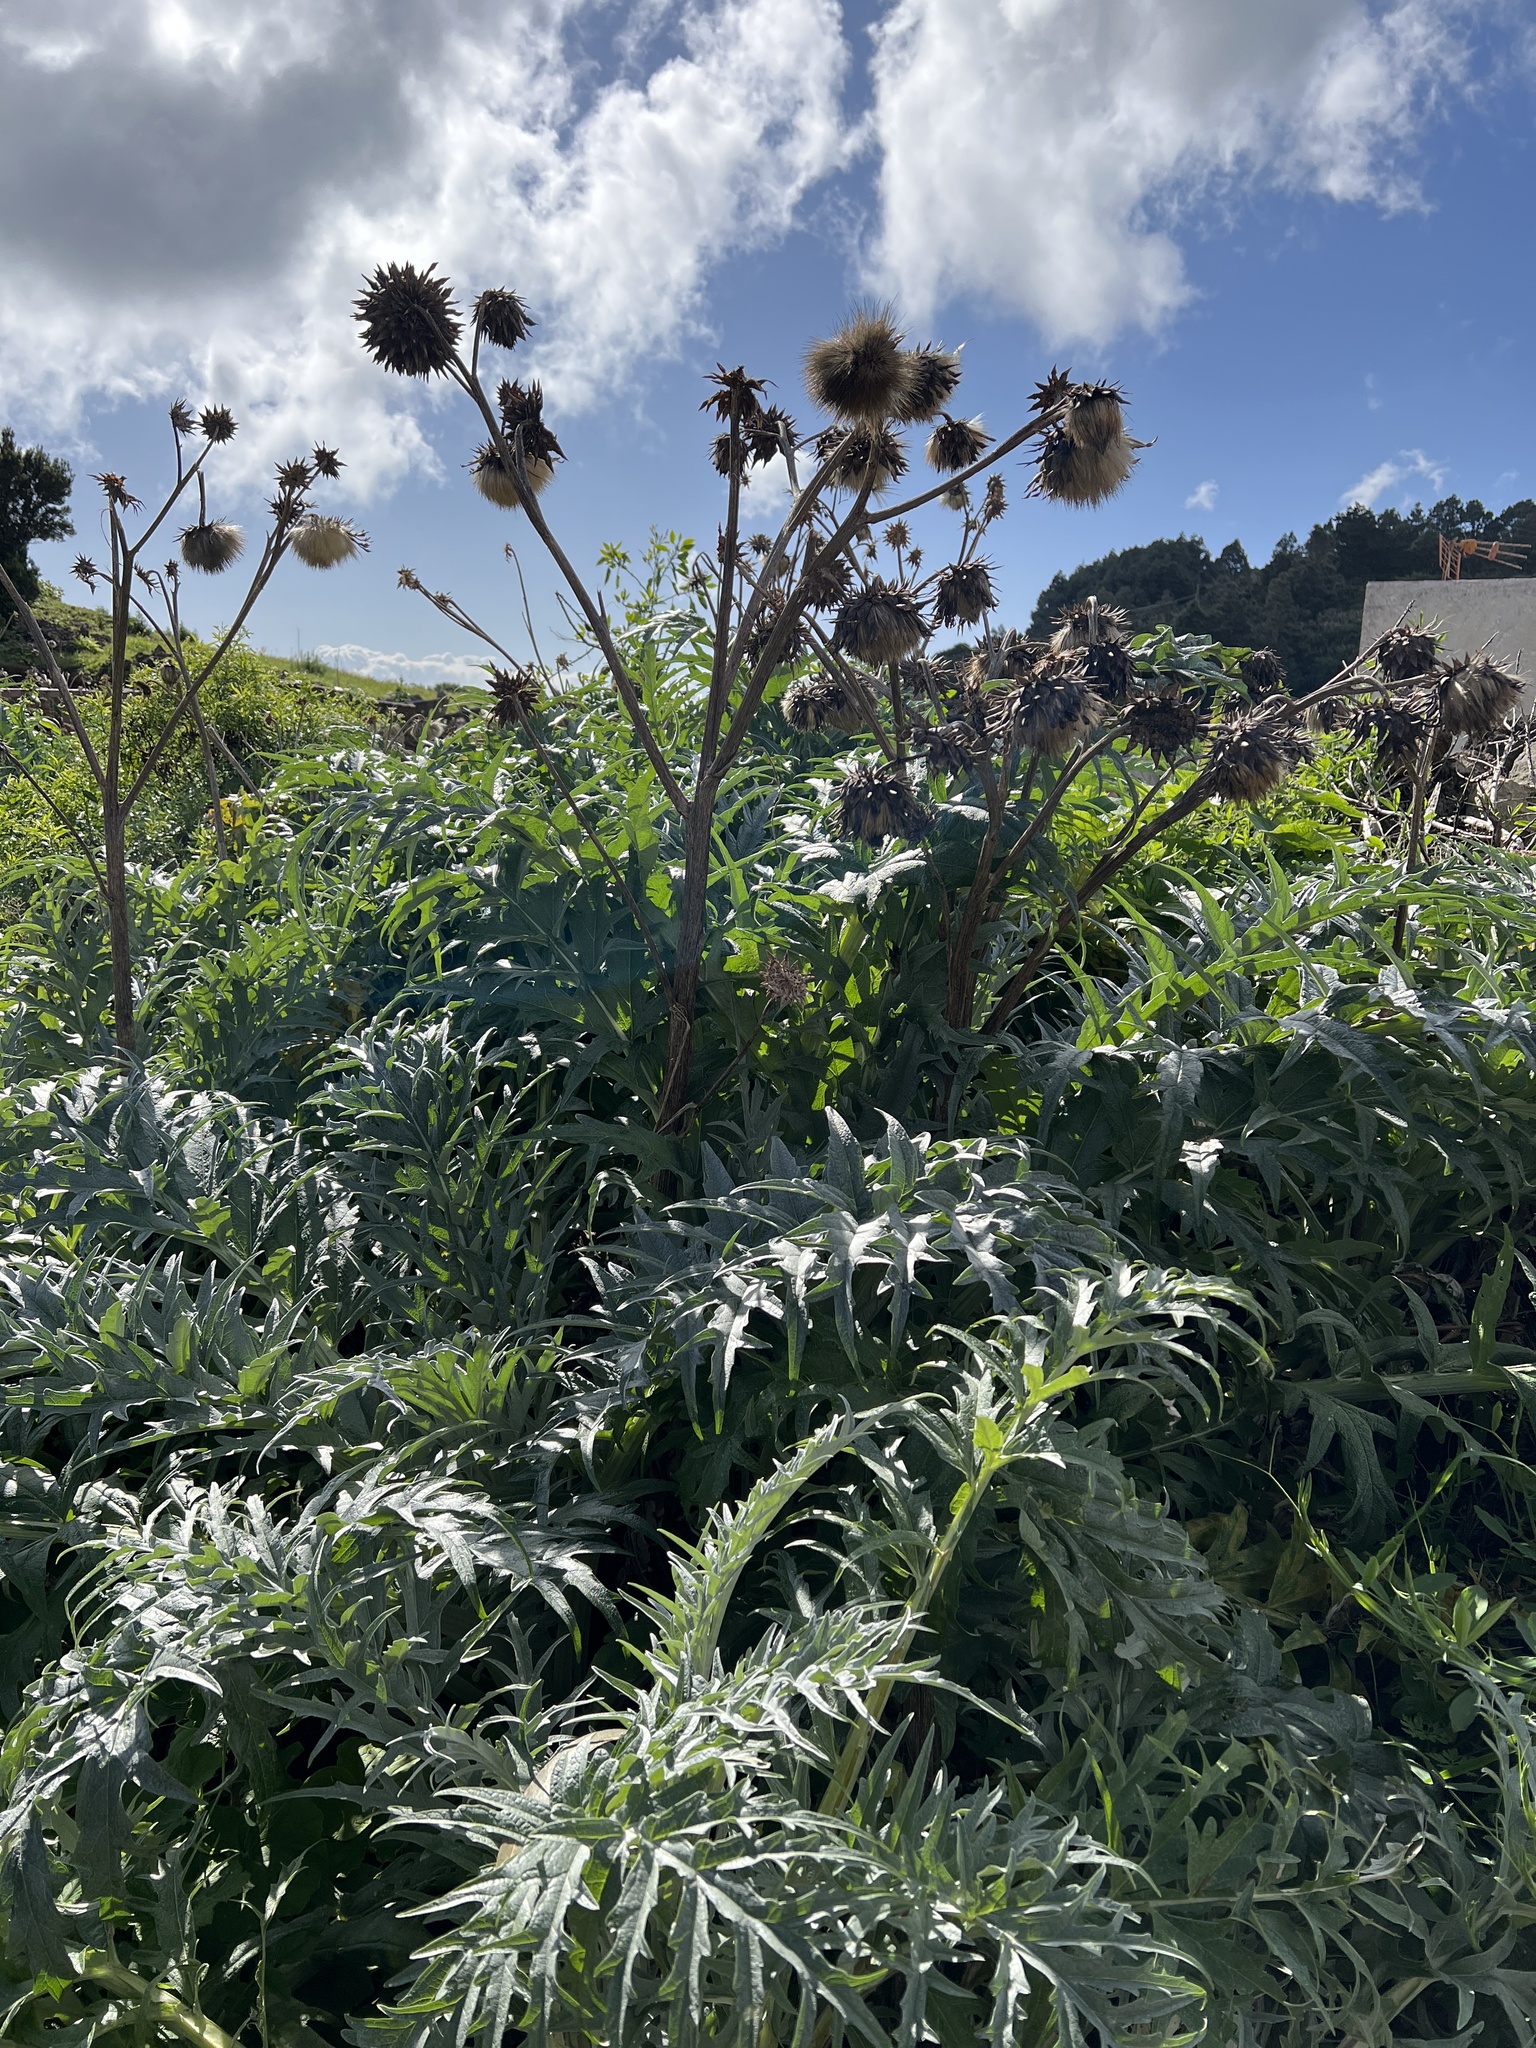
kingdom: Plantae
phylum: Tracheophyta
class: Magnoliopsida
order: Asterales
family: Asteraceae
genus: Cynara
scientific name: Cynara cardunculus
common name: Globe artichoke
